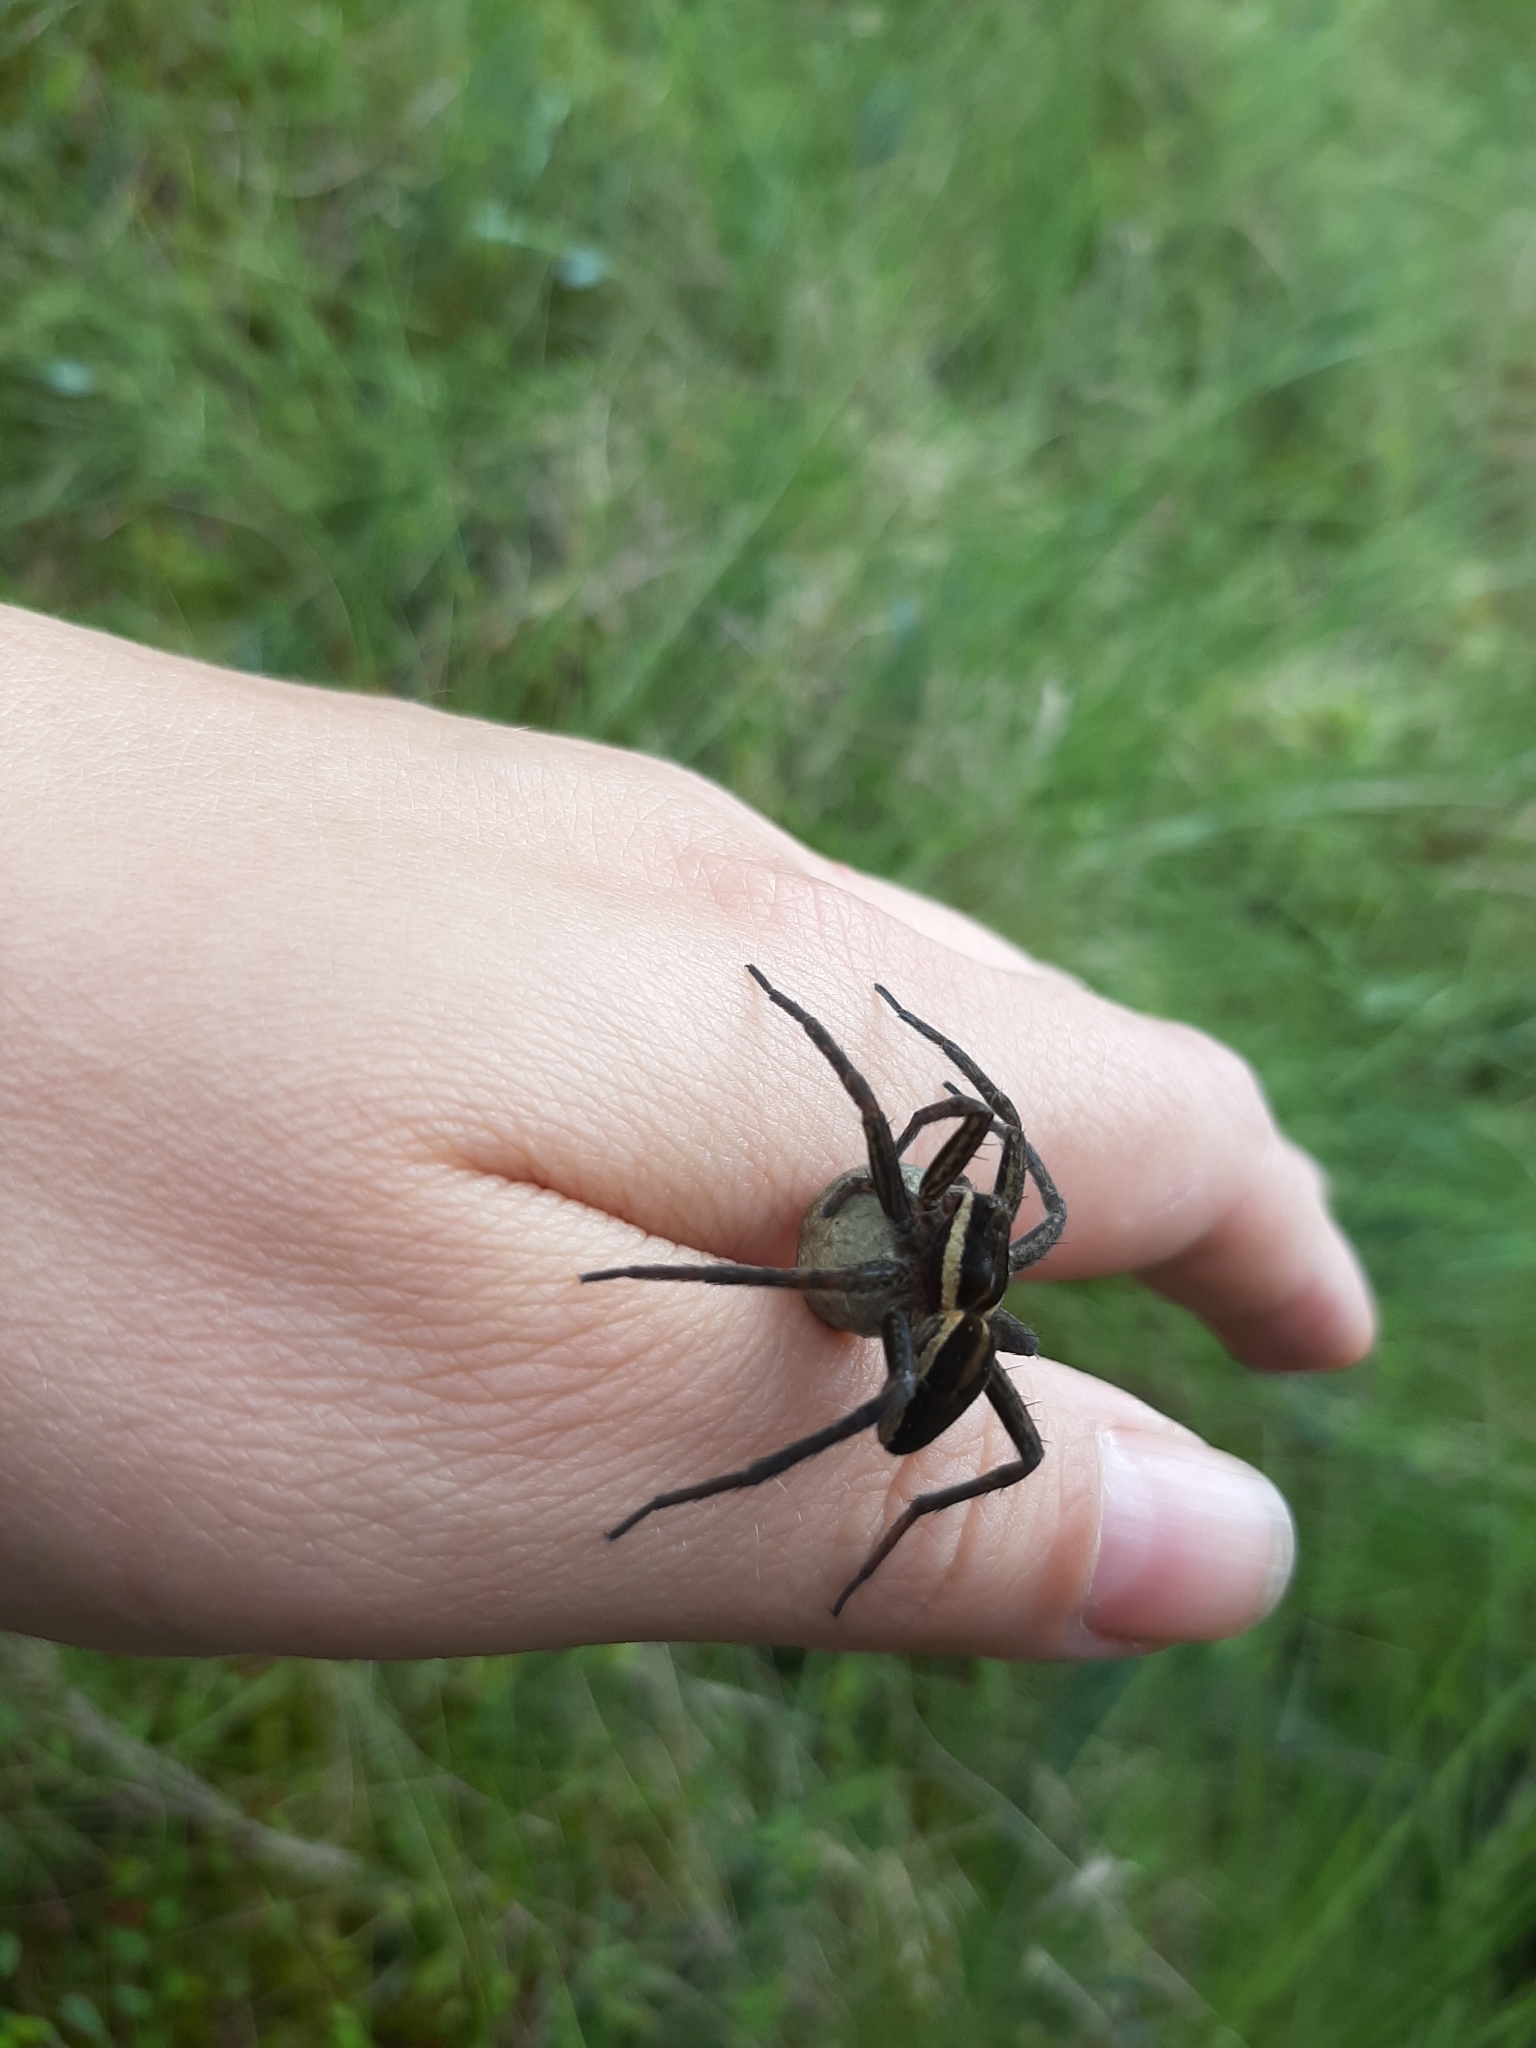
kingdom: Animalia
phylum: Arthropoda
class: Arachnida
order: Araneae
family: Pisauridae
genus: Dolomedes
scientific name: Dolomedes fimbriatus
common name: Raft spider
